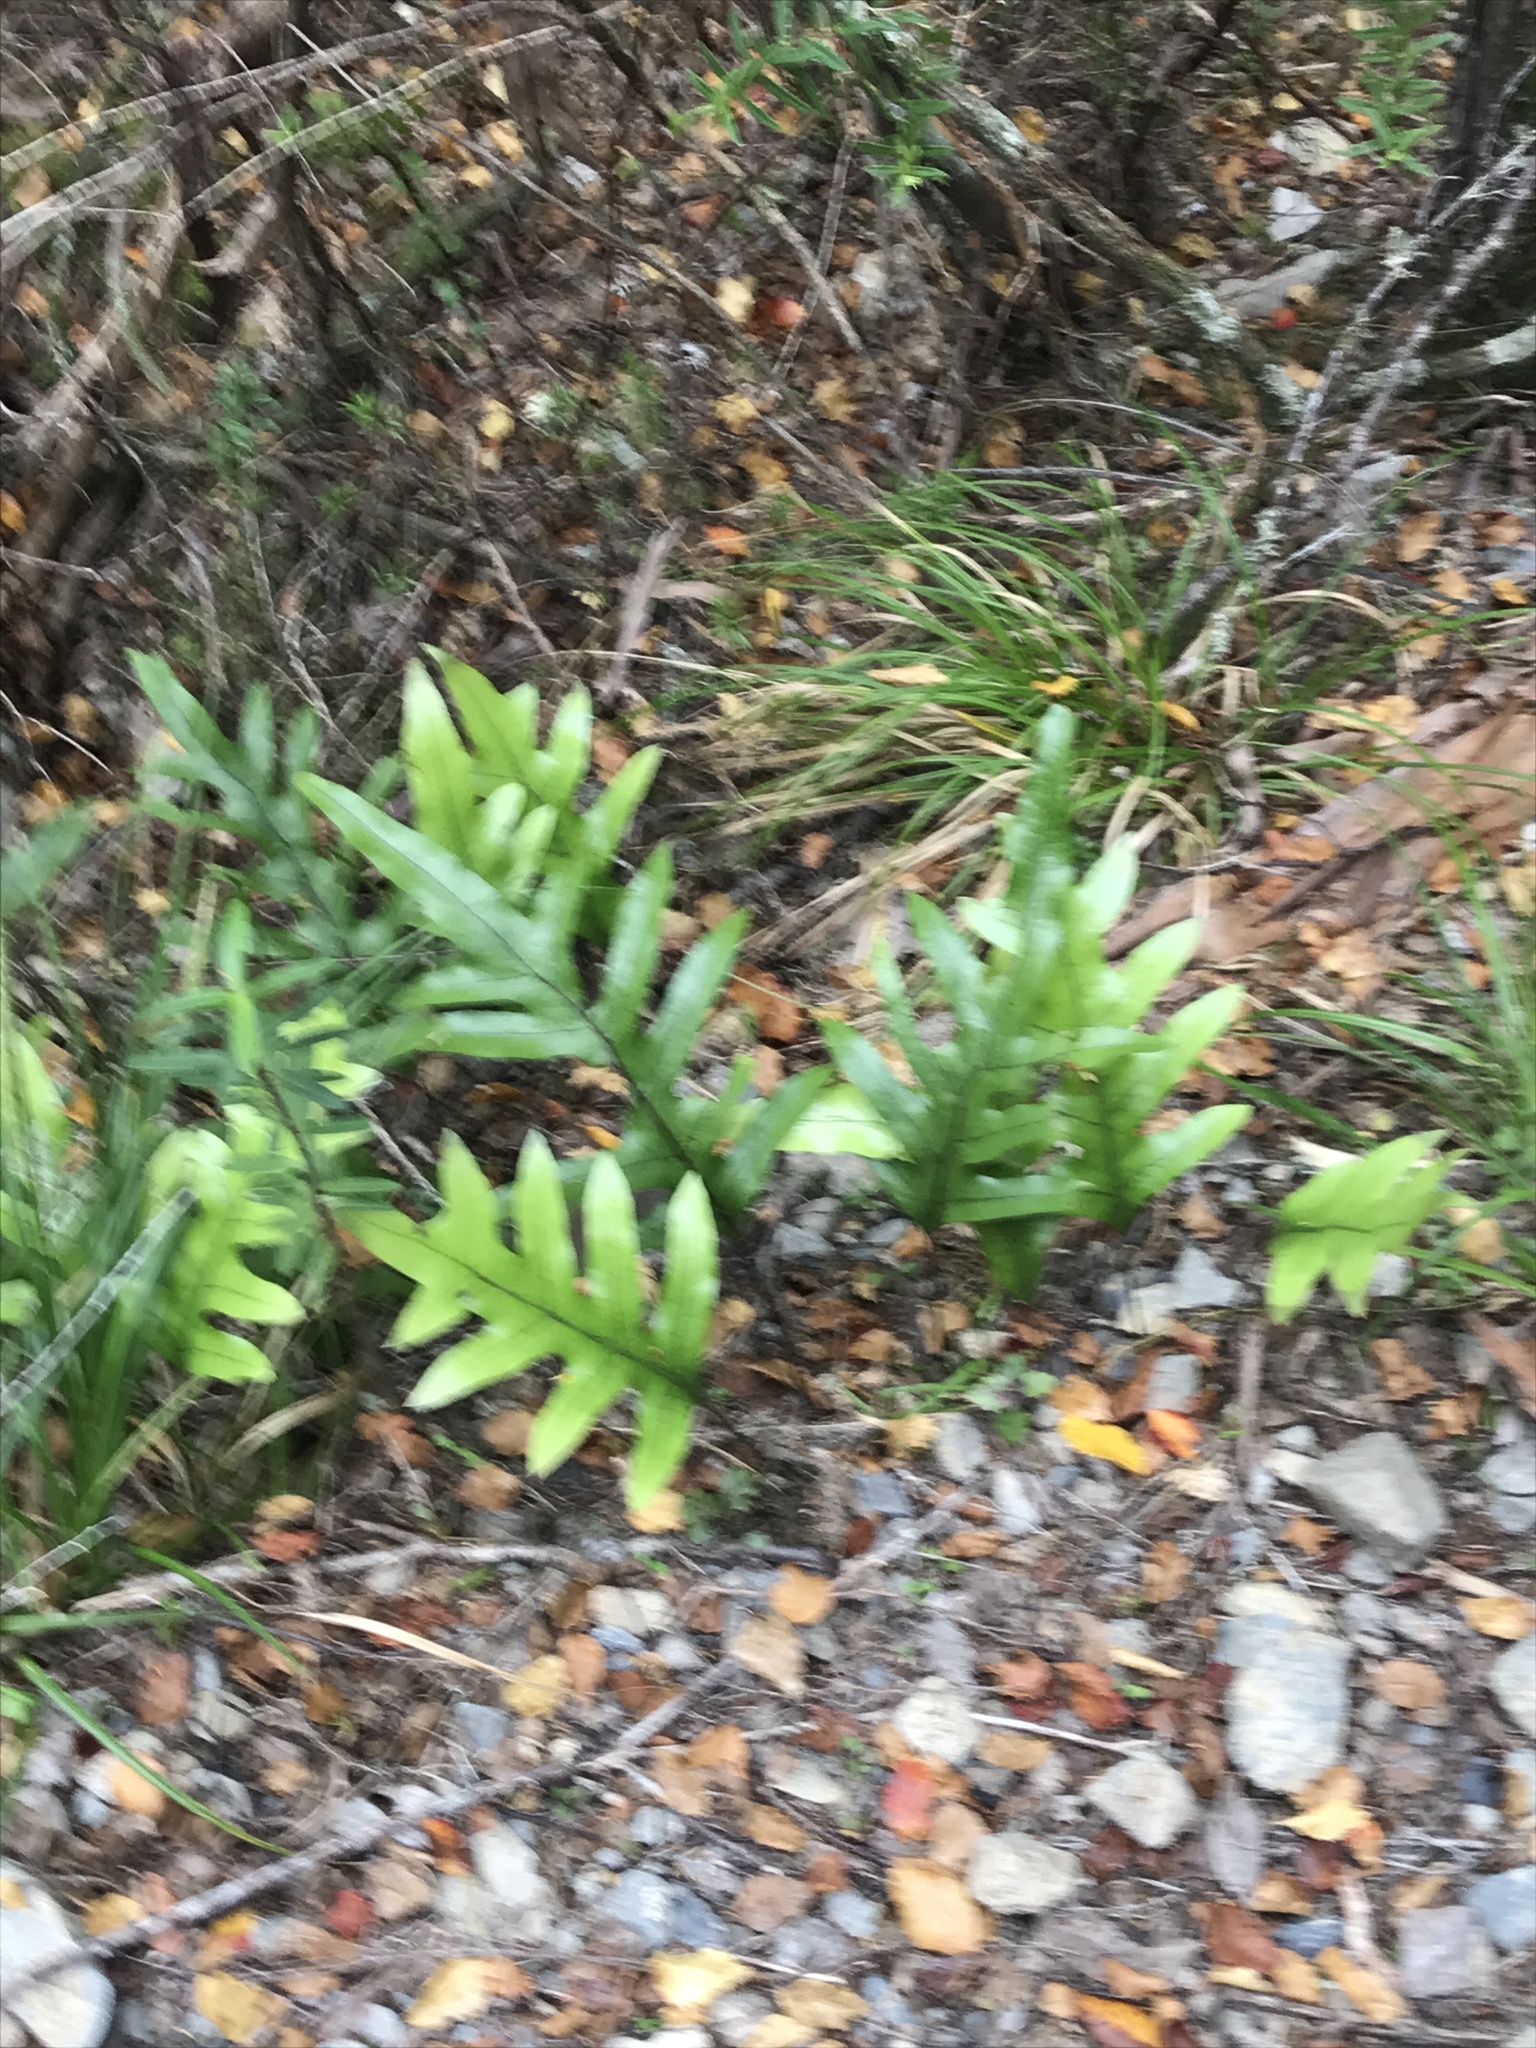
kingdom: Plantae
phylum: Tracheophyta
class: Polypodiopsida
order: Polypodiales
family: Polypodiaceae
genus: Lecanopteris
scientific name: Lecanopteris pustulata
